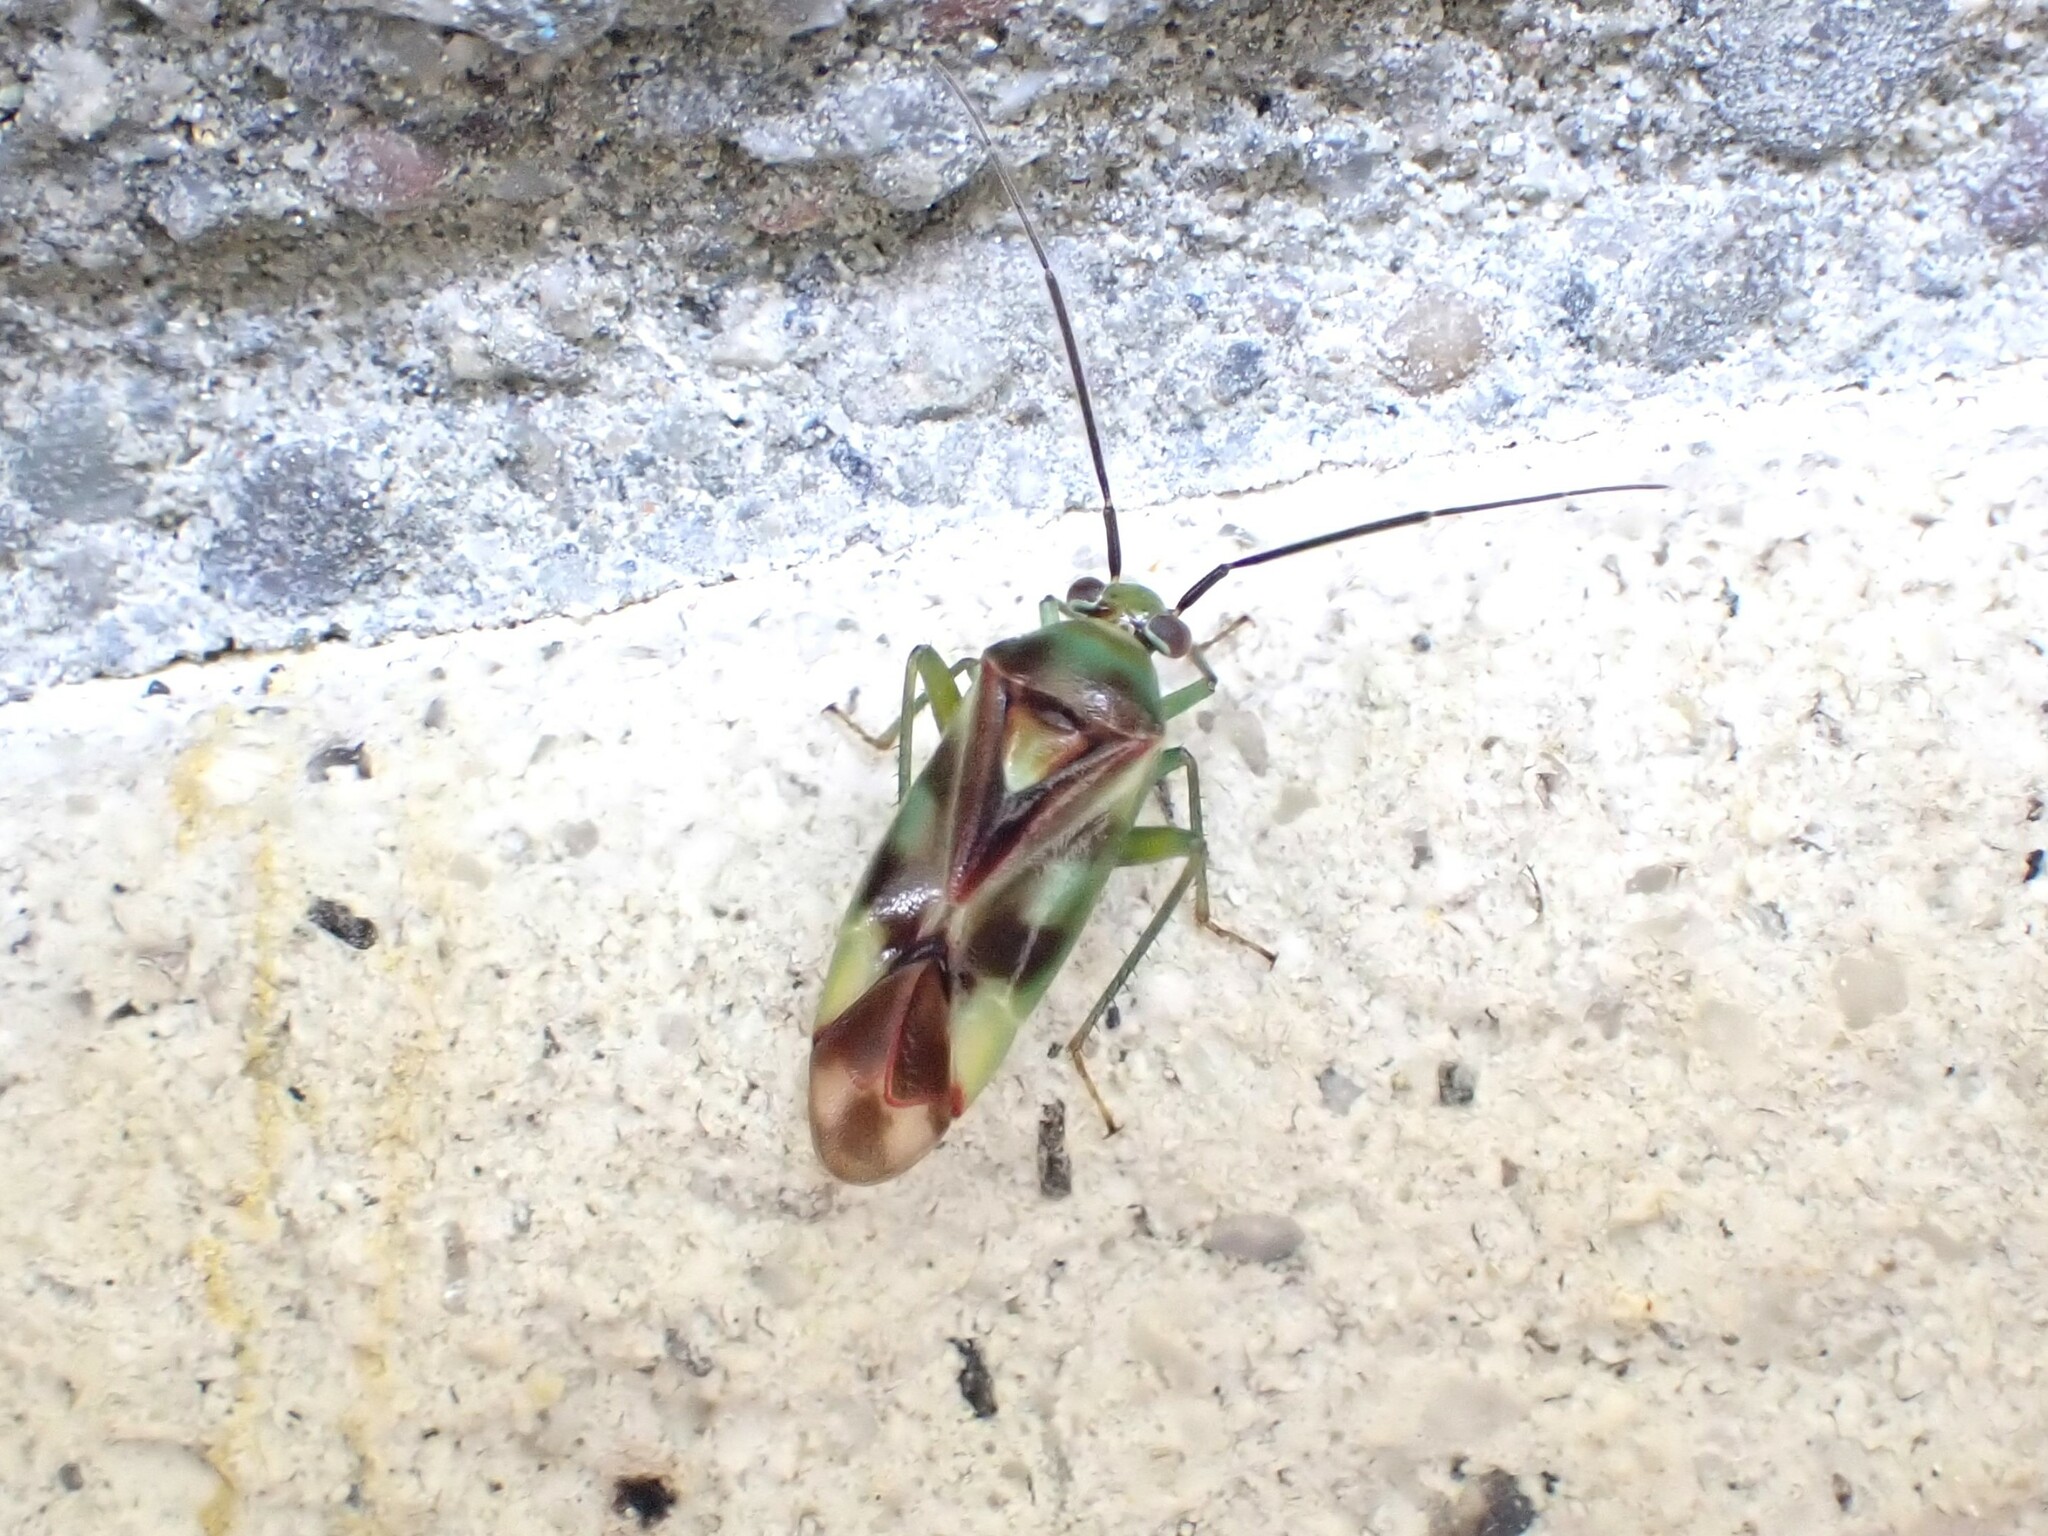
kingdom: Animalia
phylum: Arthropoda
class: Insecta
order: Hemiptera
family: Miridae
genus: Tuicoris
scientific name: Tuicoris excelsus
